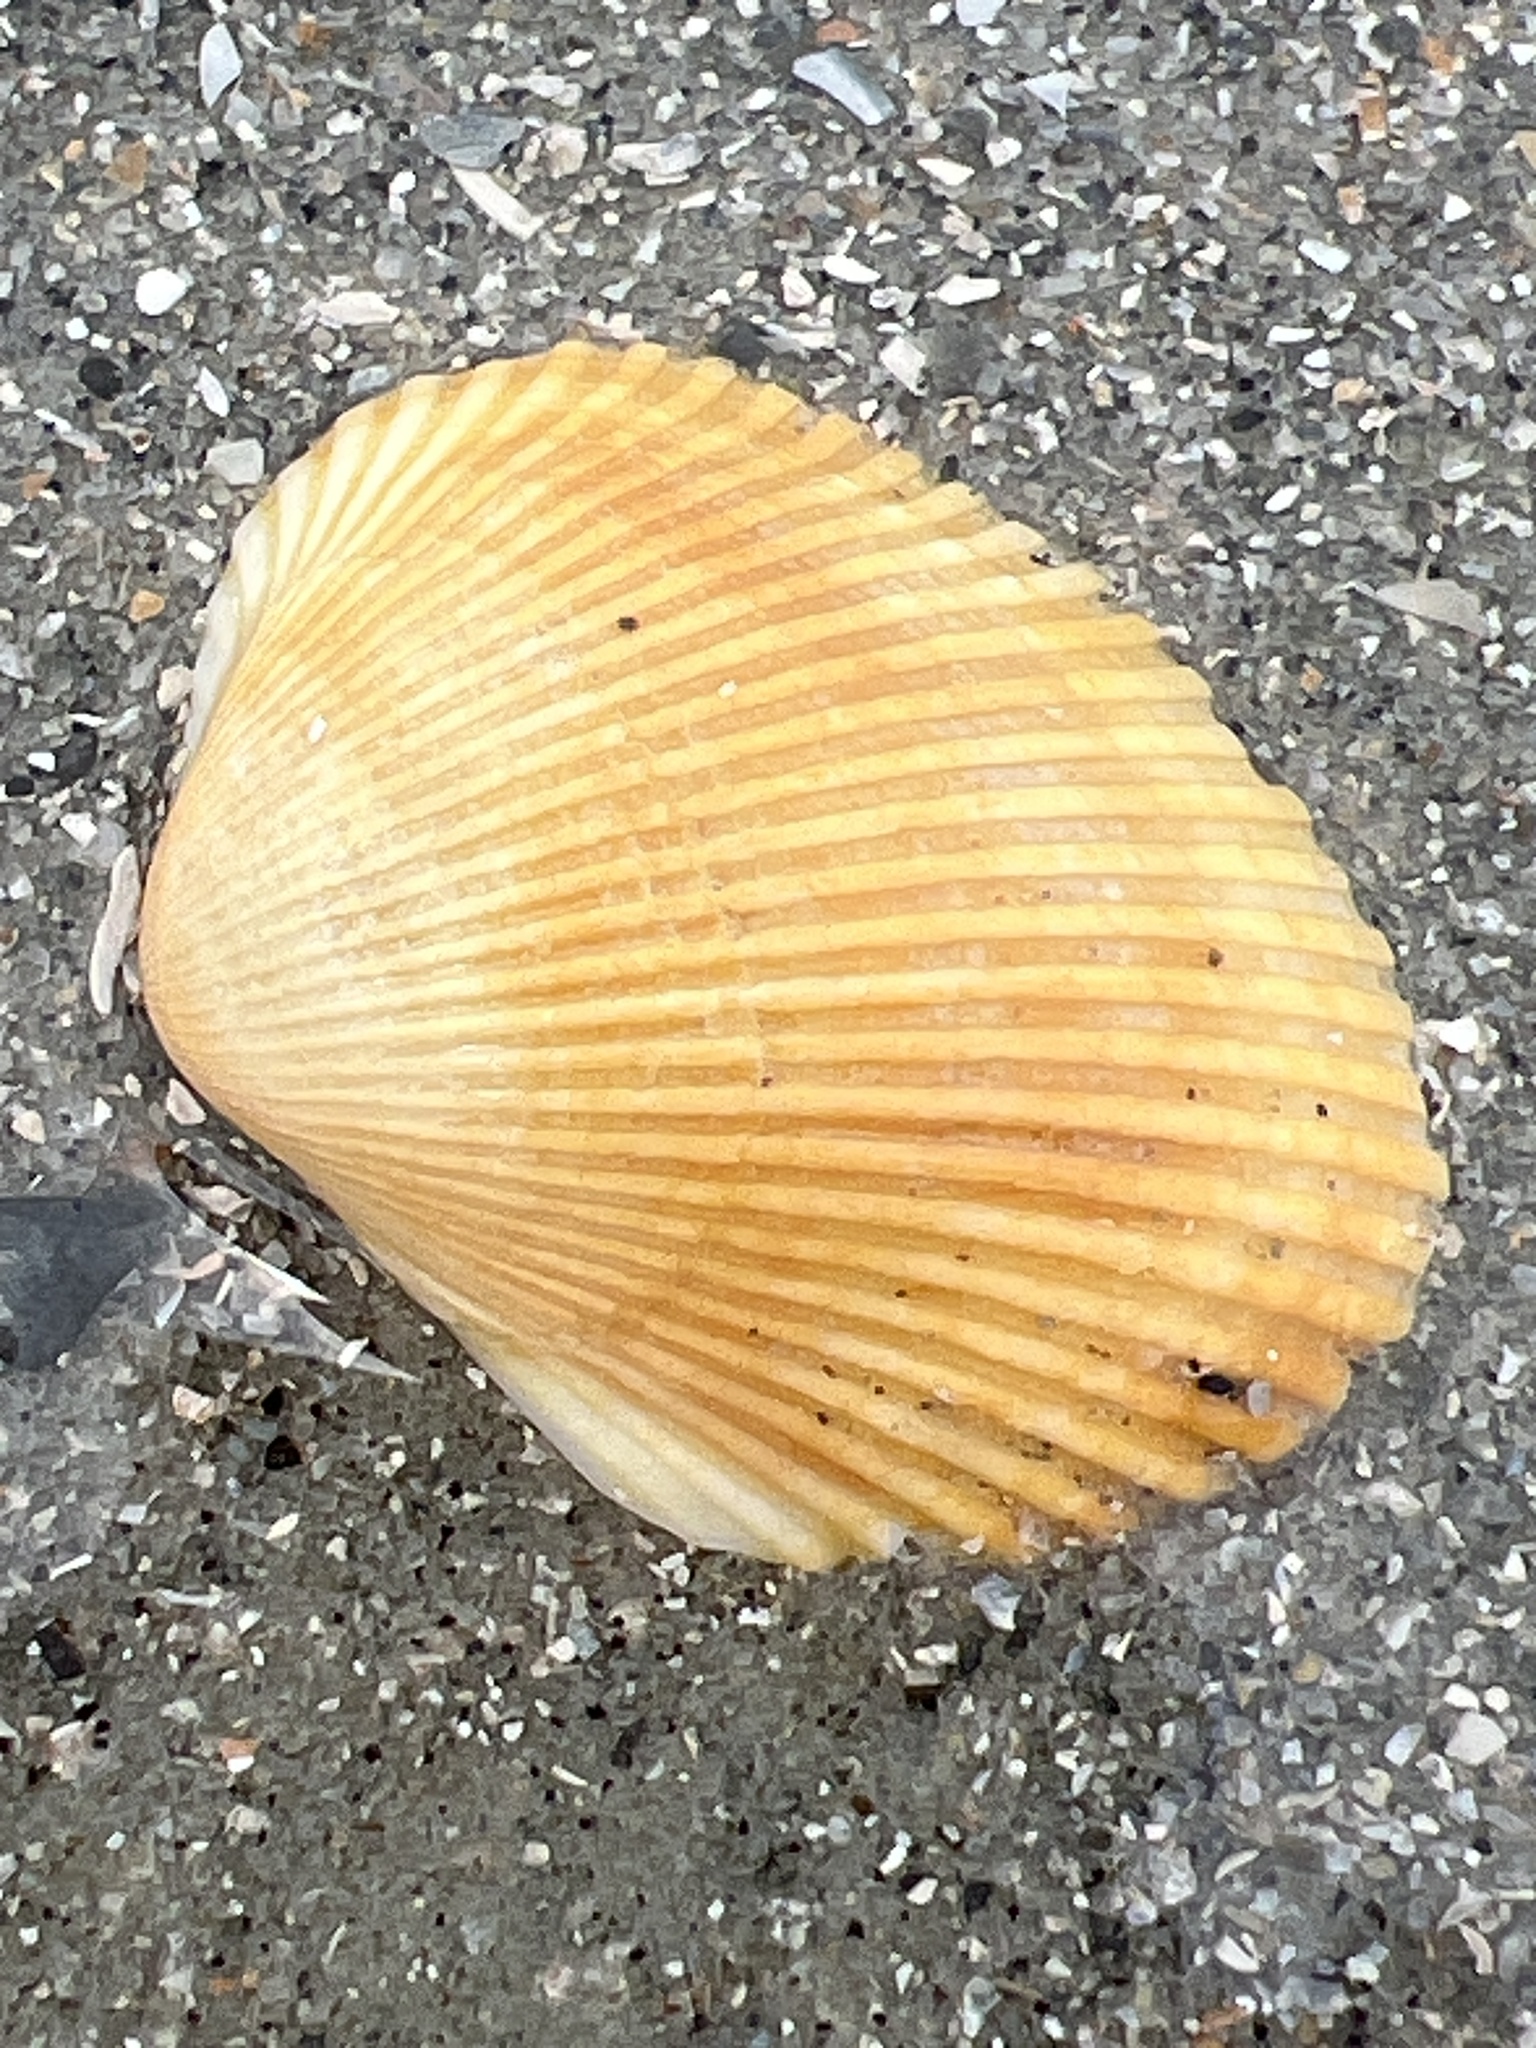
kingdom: Animalia
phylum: Mollusca
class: Bivalvia
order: Arcida
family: Arcidae
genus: Lunarca
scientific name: Lunarca ovalis
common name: Blood ark
